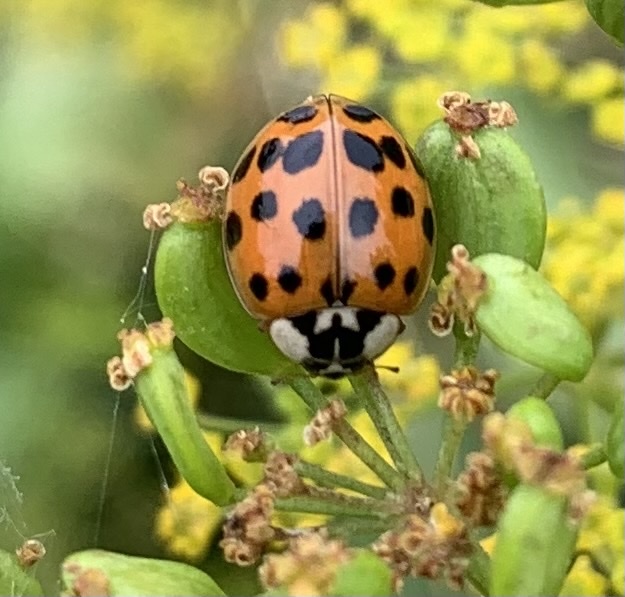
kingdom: Animalia
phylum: Arthropoda
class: Insecta
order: Coleoptera
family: Coccinellidae
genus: Harmonia
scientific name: Harmonia axyridis
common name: Harlequin ladybird
